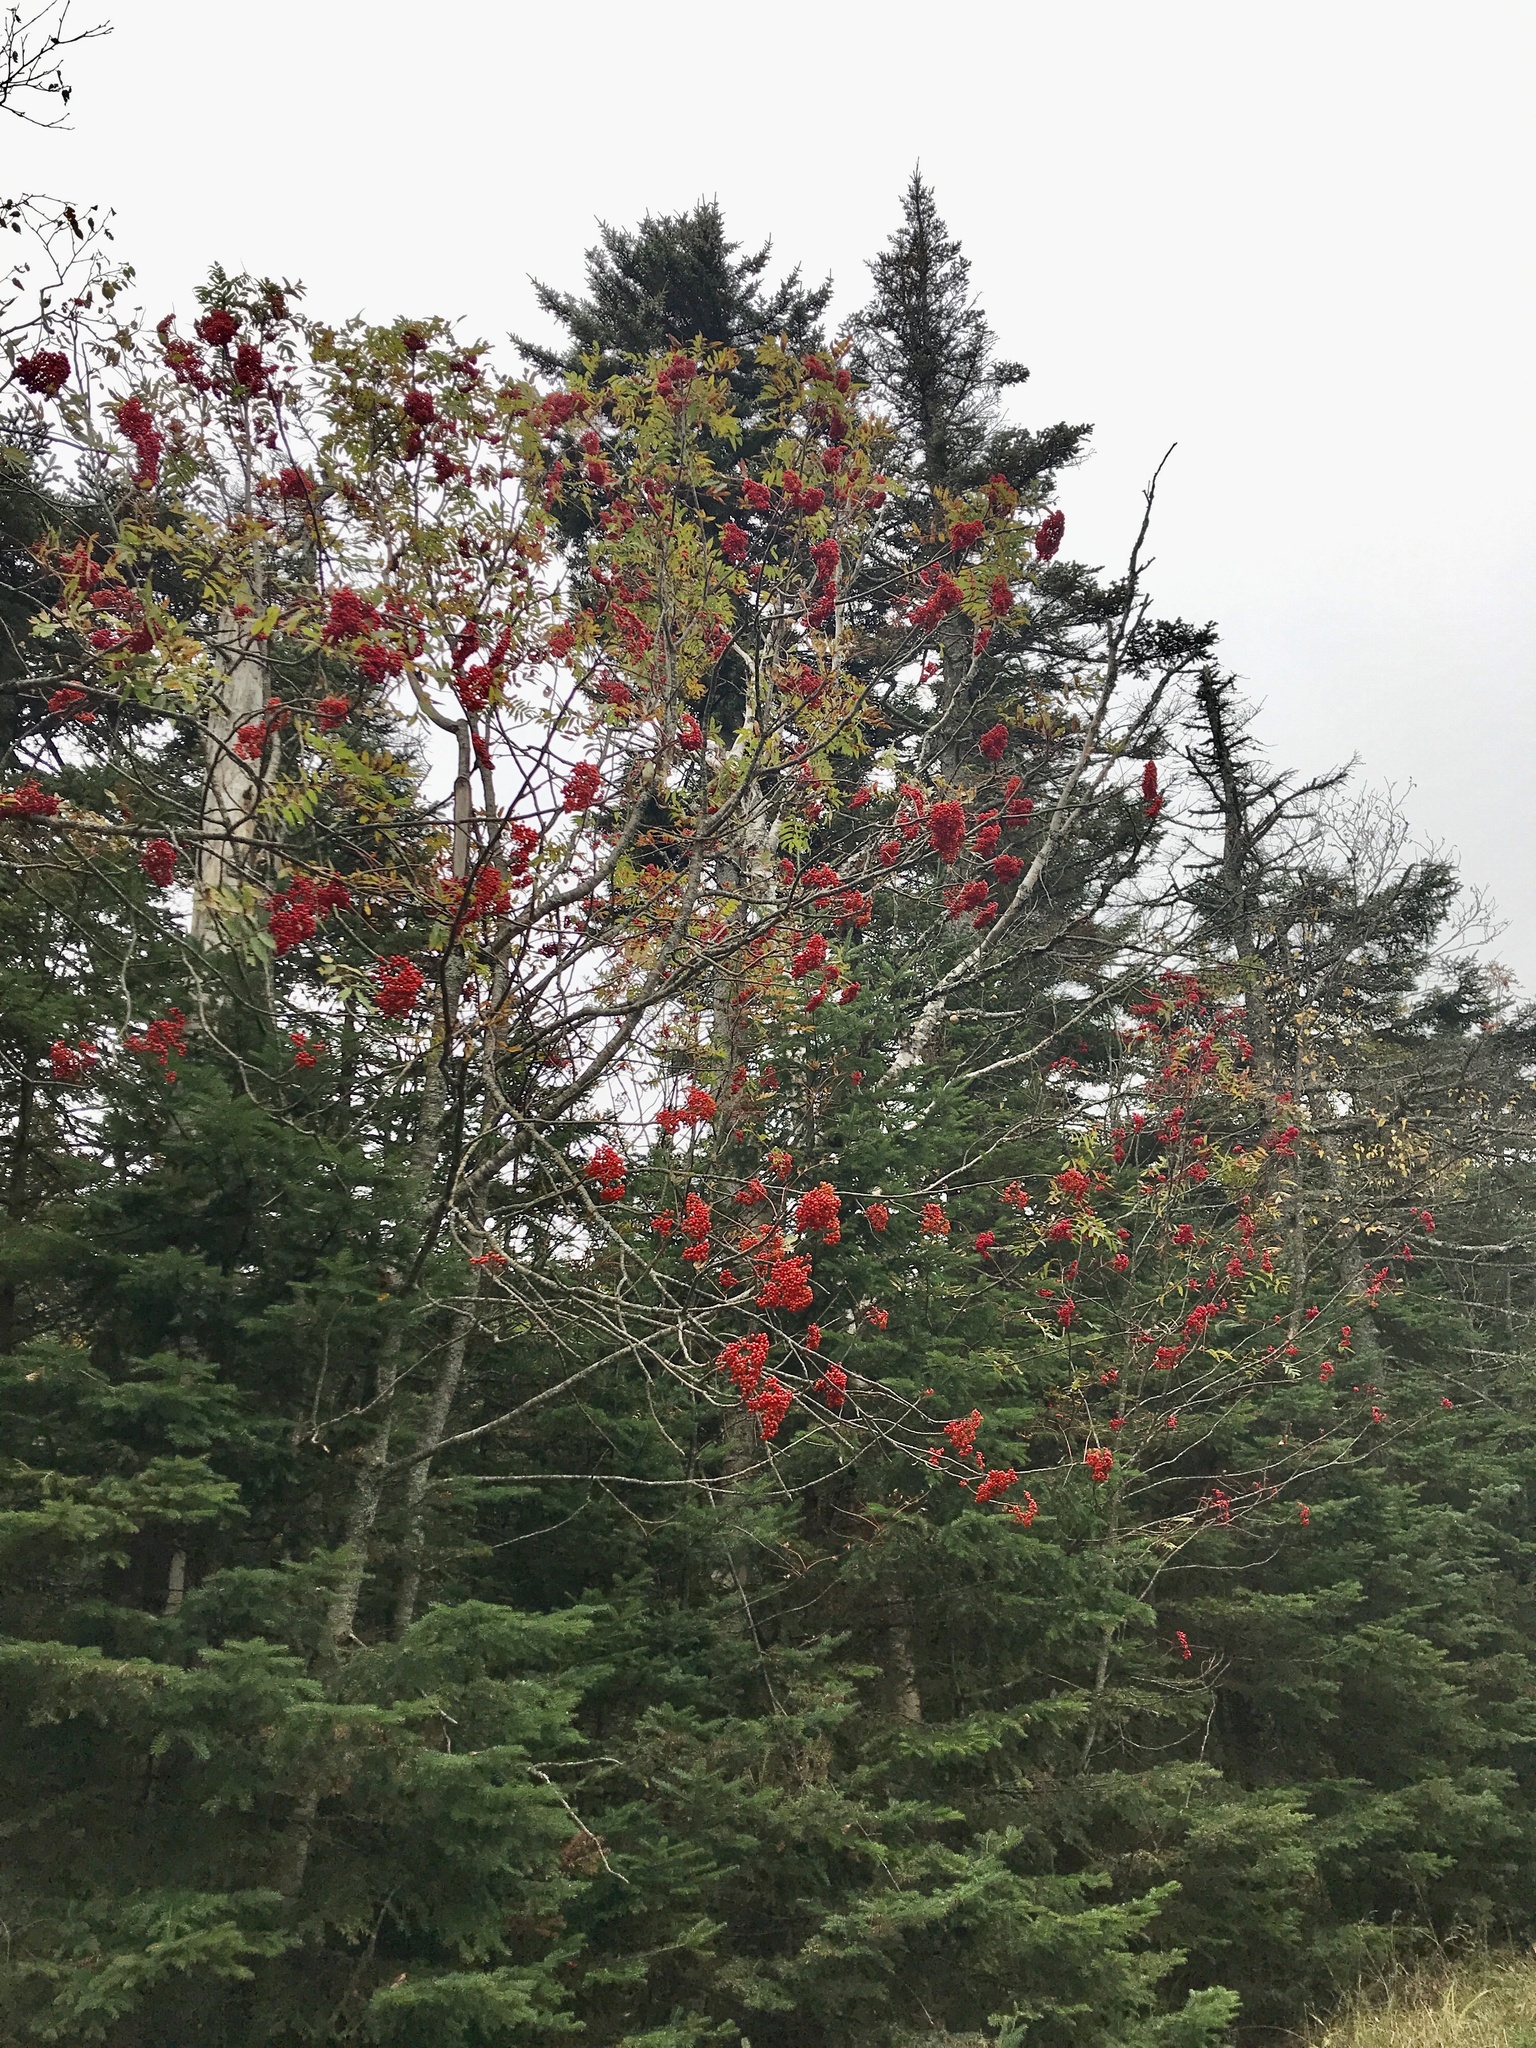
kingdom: Plantae
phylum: Tracheophyta
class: Magnoliopsida
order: Rosales
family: Rosaceae
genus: Sorbus
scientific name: Sorbus americana
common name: American mountain-ash
